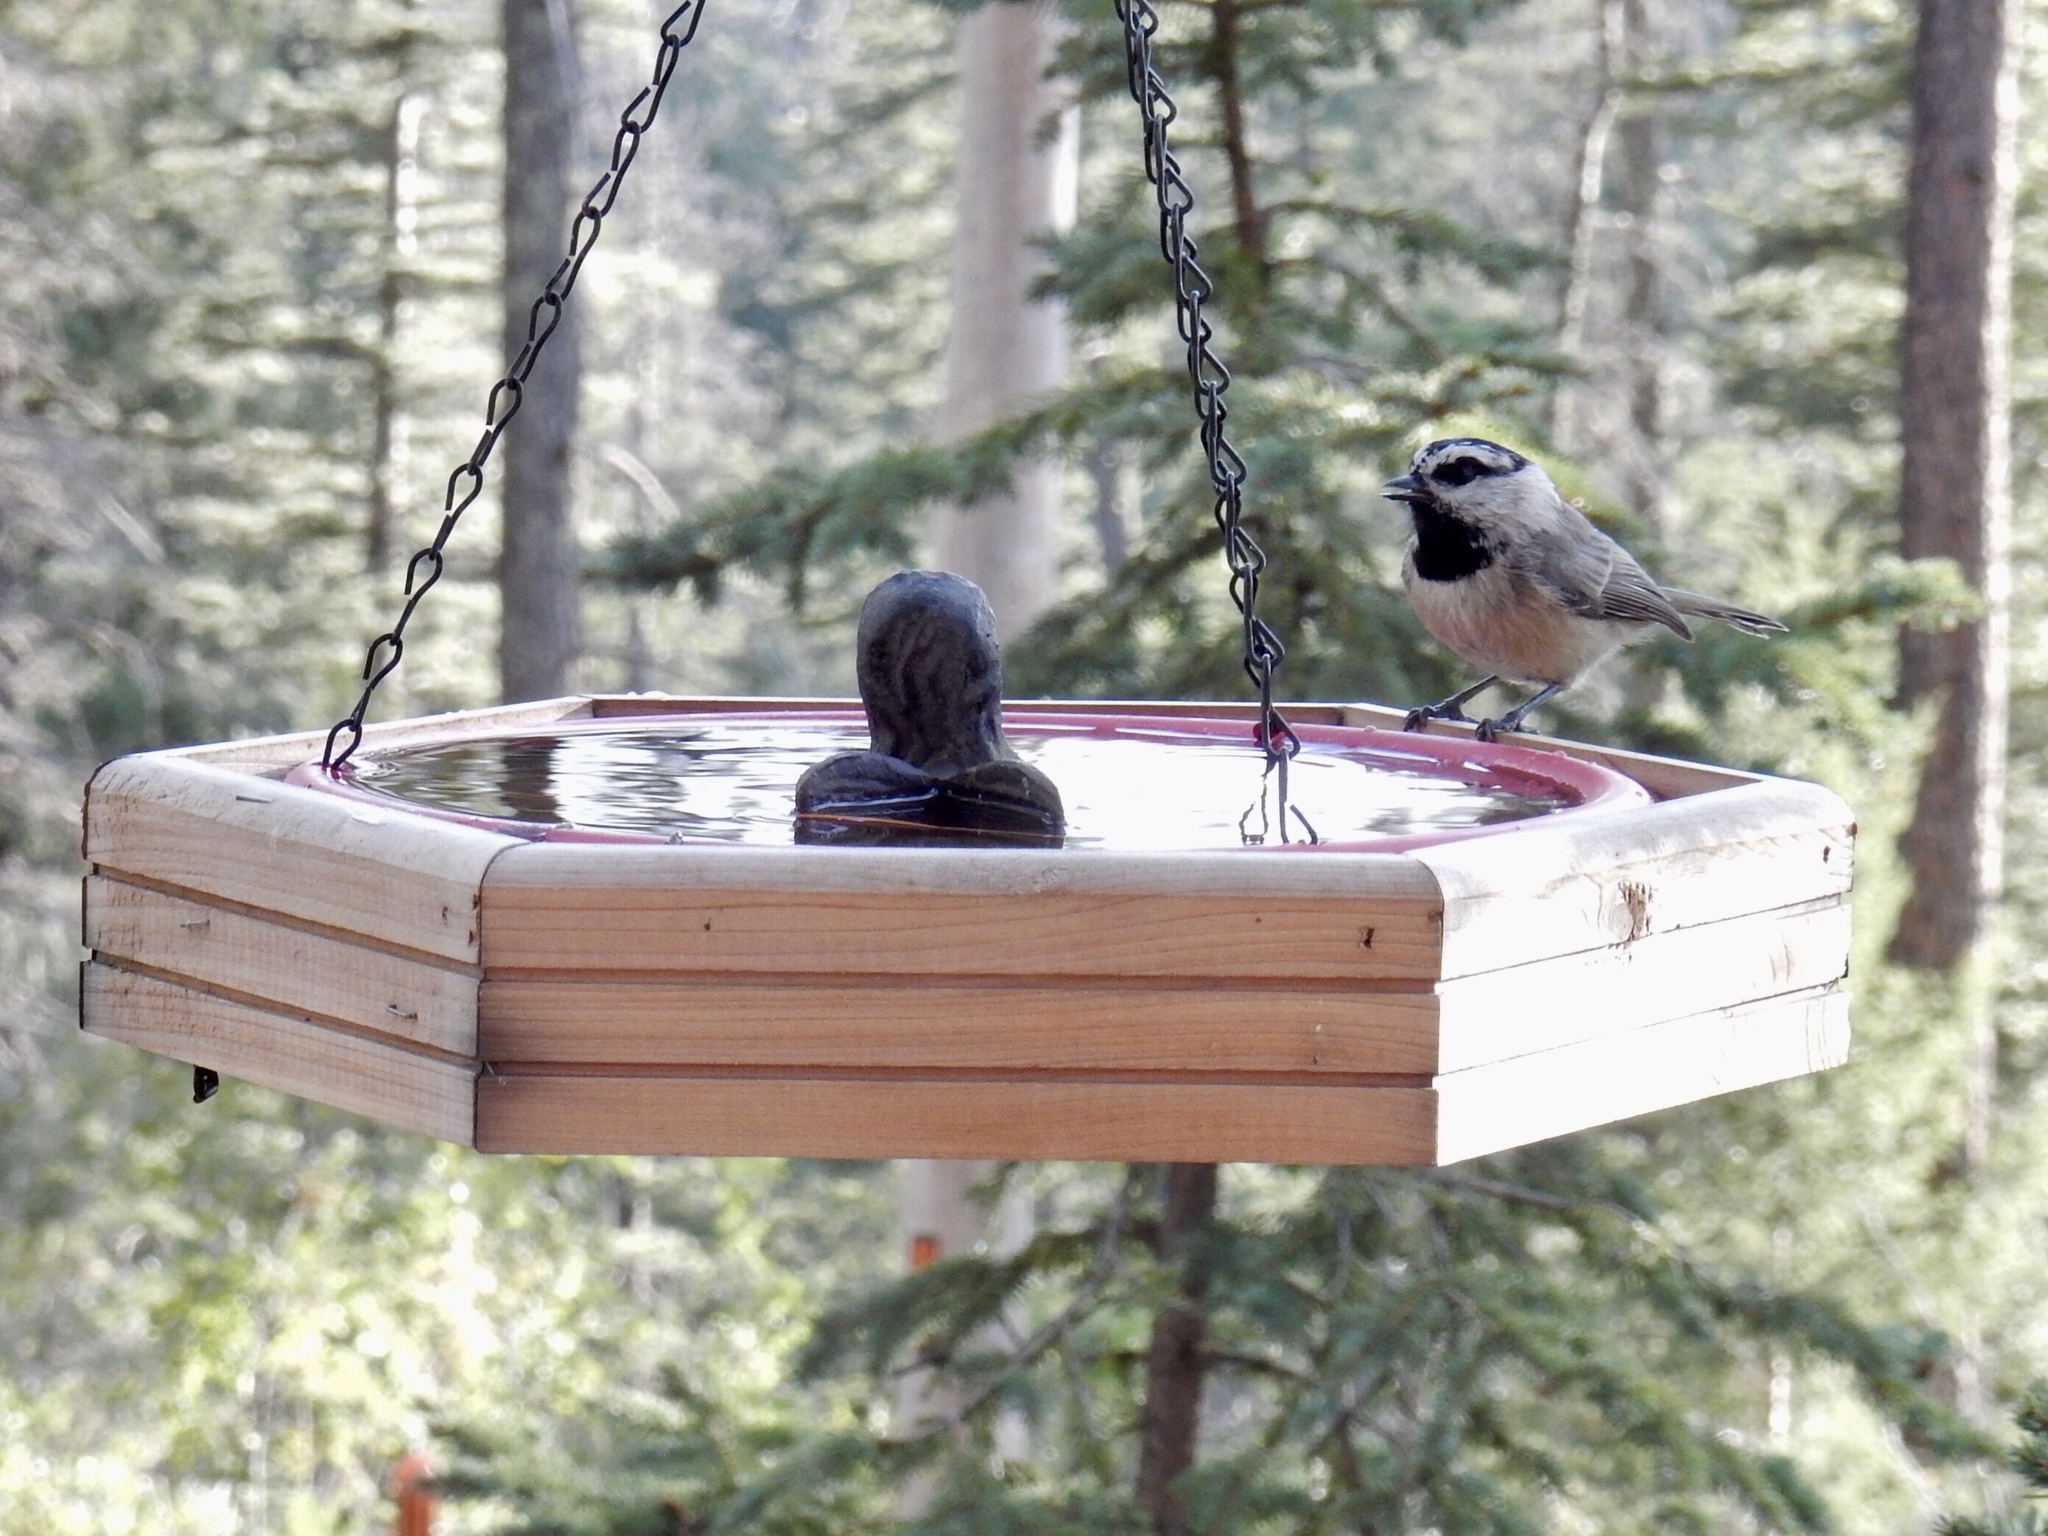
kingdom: Animalia
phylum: Chordata
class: Aves
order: Passeriformes
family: Paridae
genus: Poecile
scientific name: Poecile gambeli
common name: Mountain chickadee
